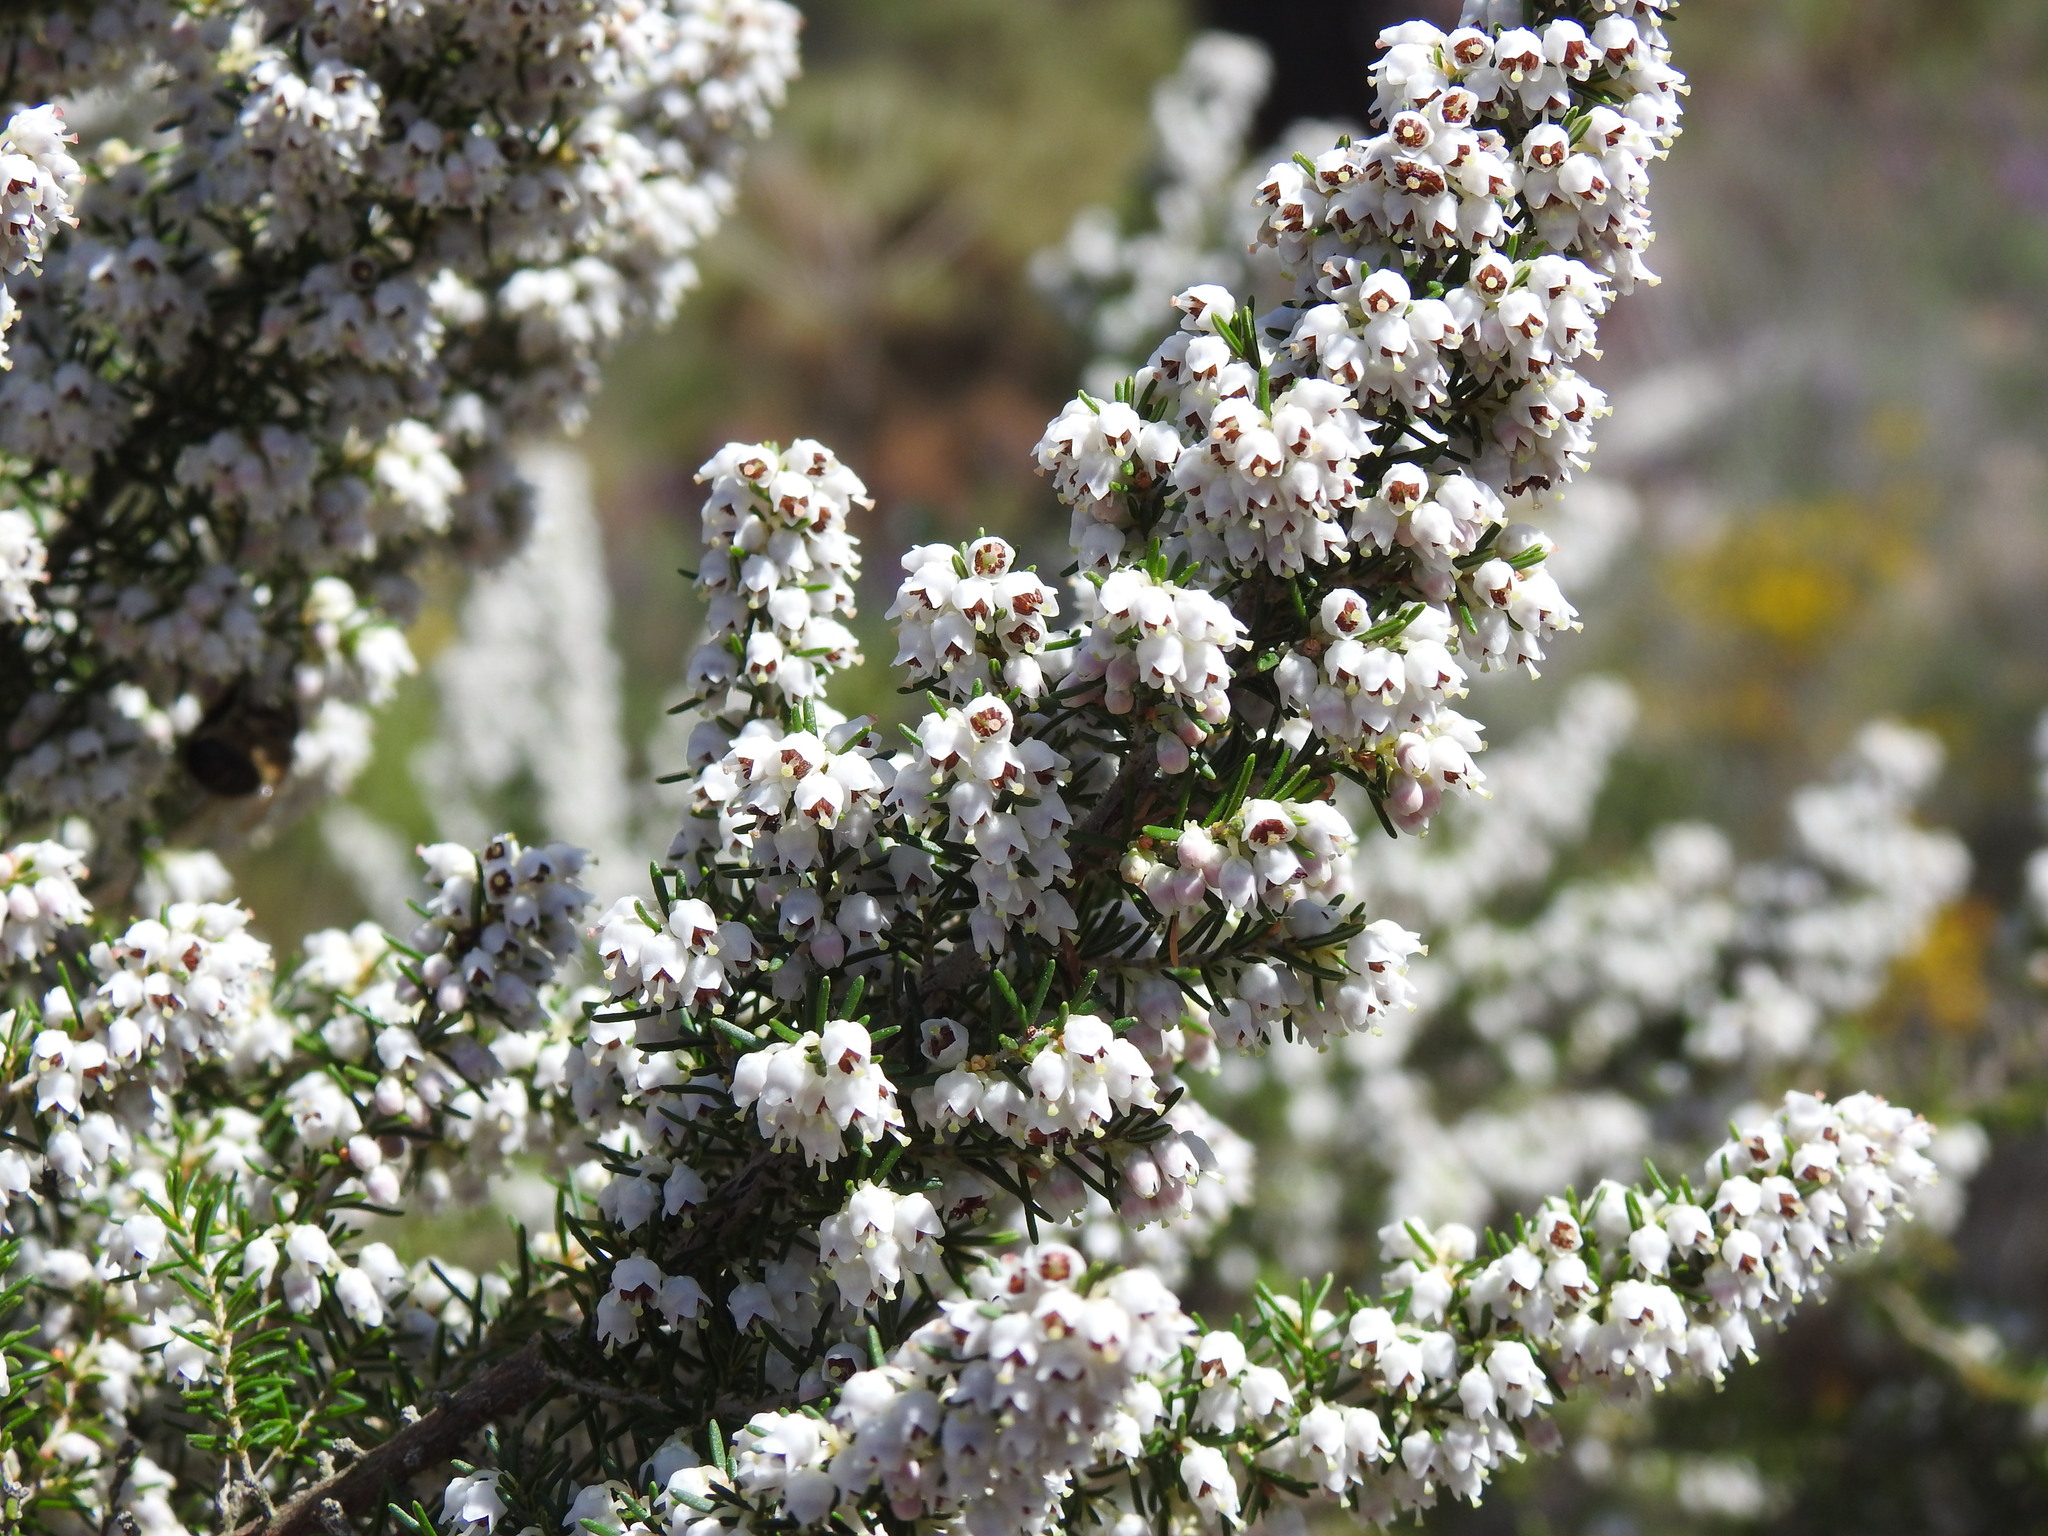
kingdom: Plantae
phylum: Tracheophyta
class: Magnoliopsida
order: Ericales
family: Ericaceae
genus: Erica
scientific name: Erica arborea
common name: Tree heath
